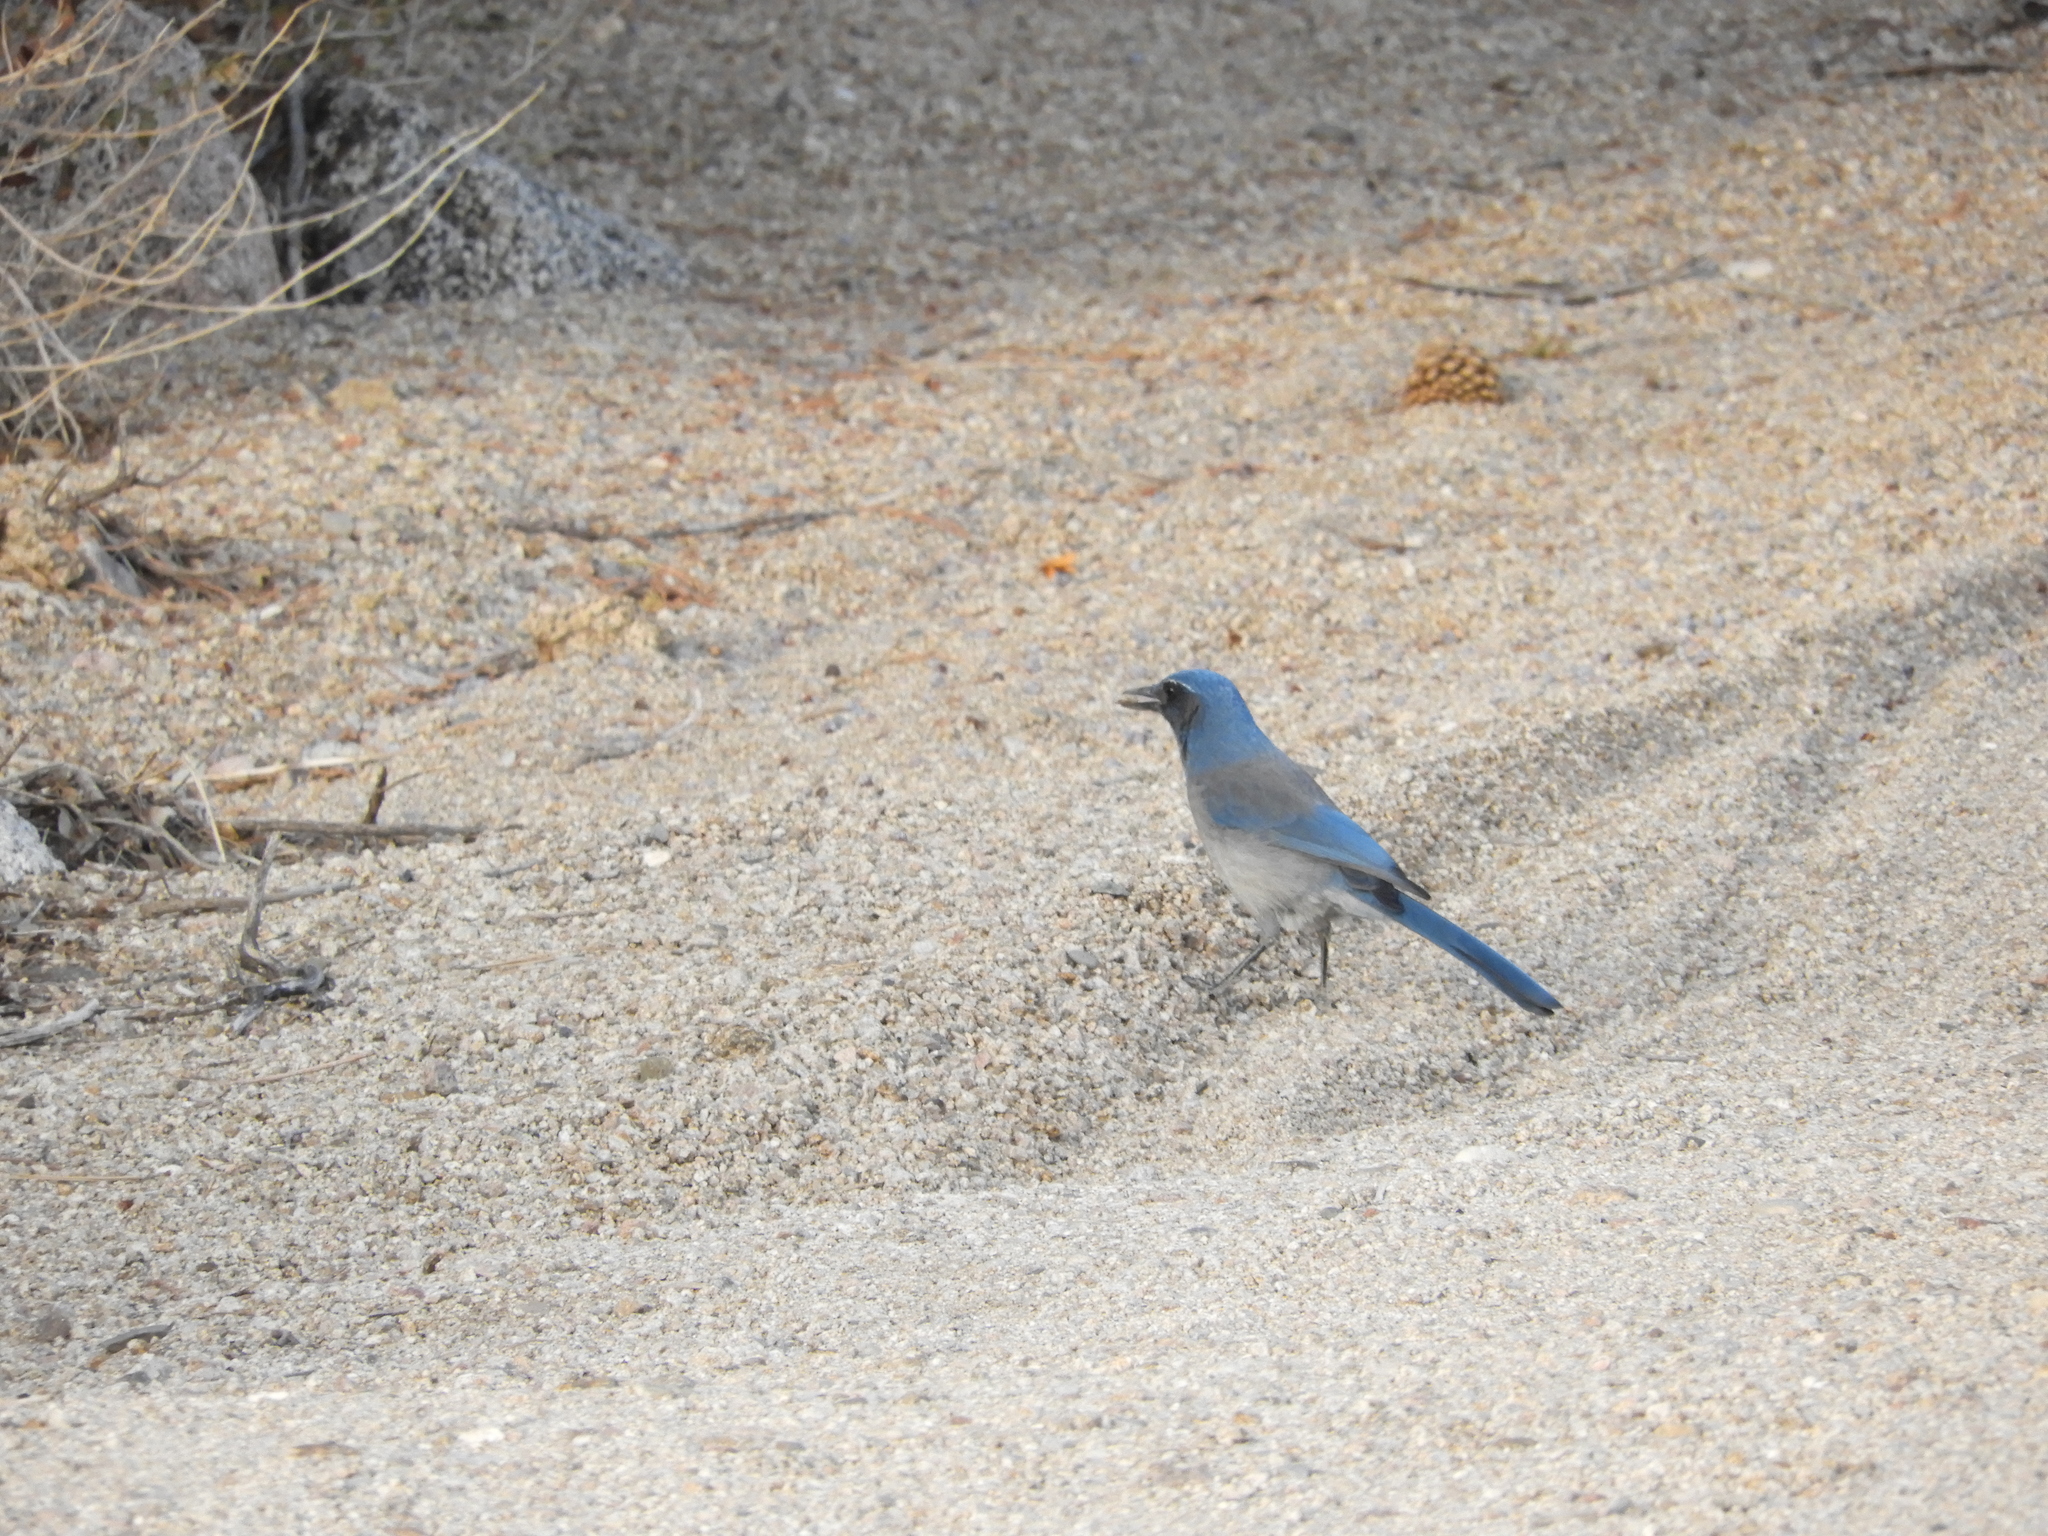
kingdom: Animalia
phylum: Chordata
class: Aves
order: Passeriformes
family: Corvidae
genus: Aphelocoma
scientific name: Aphelocoma woodhouseii
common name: Woodhouse's scrub-jay
